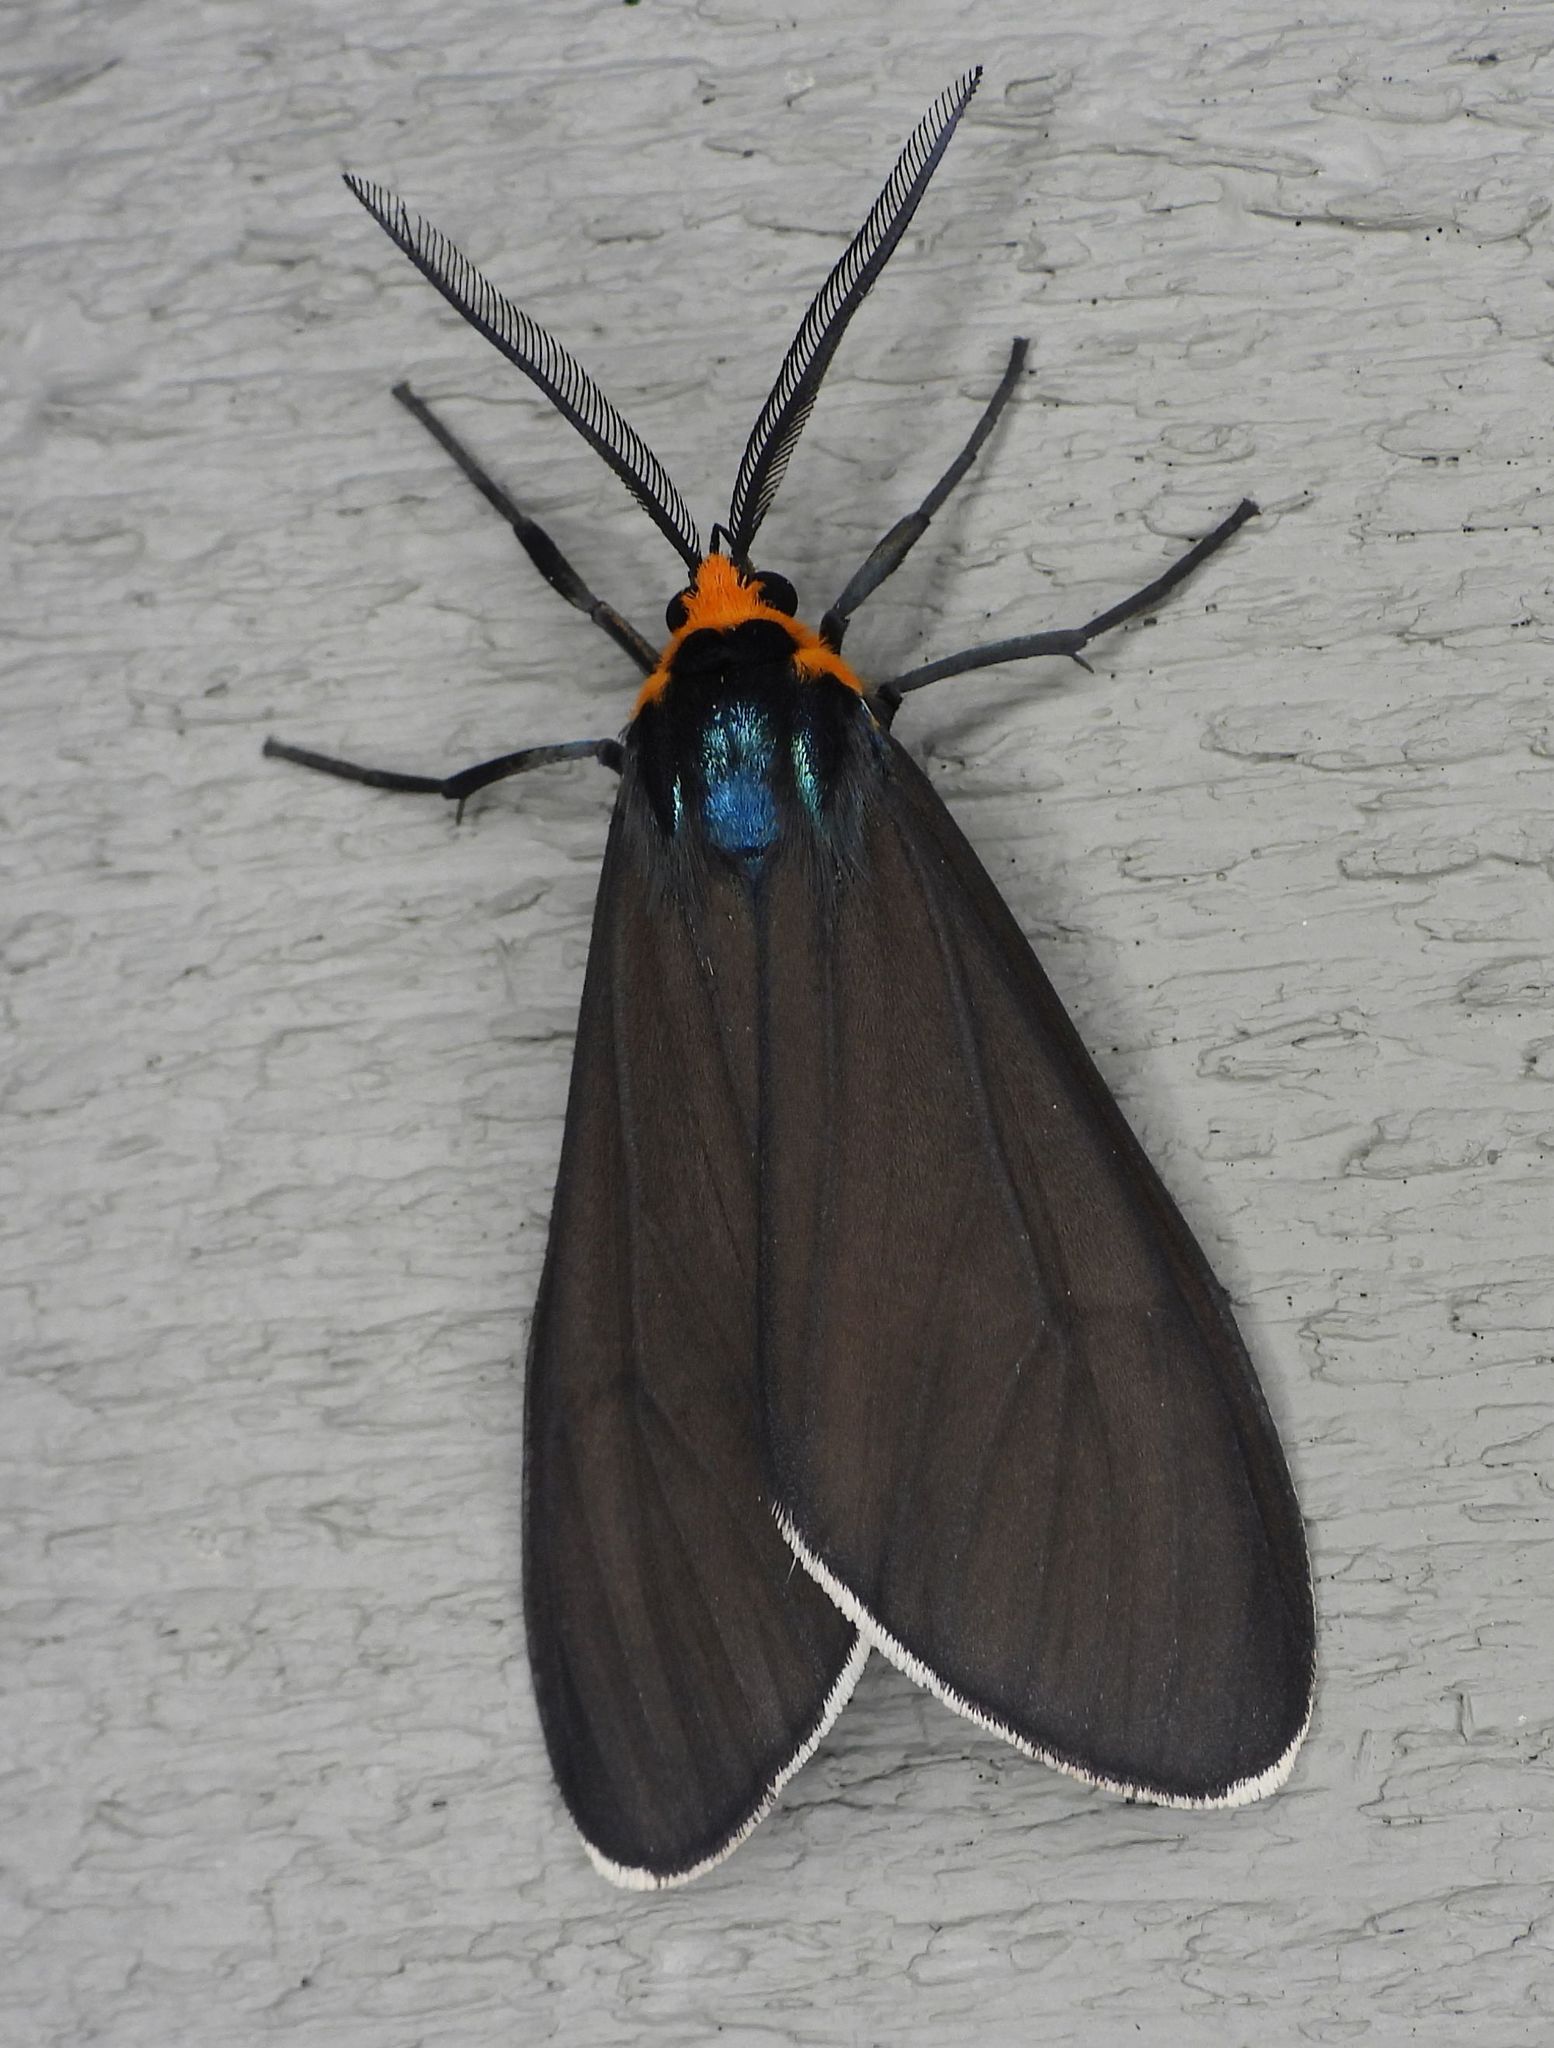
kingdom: Animalia
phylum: Arthropoda
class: Insecta
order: Lepidoptera
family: Erebidae
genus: Ctenucha
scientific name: Ctenucha virginica
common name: Virginia ctenucha moth
